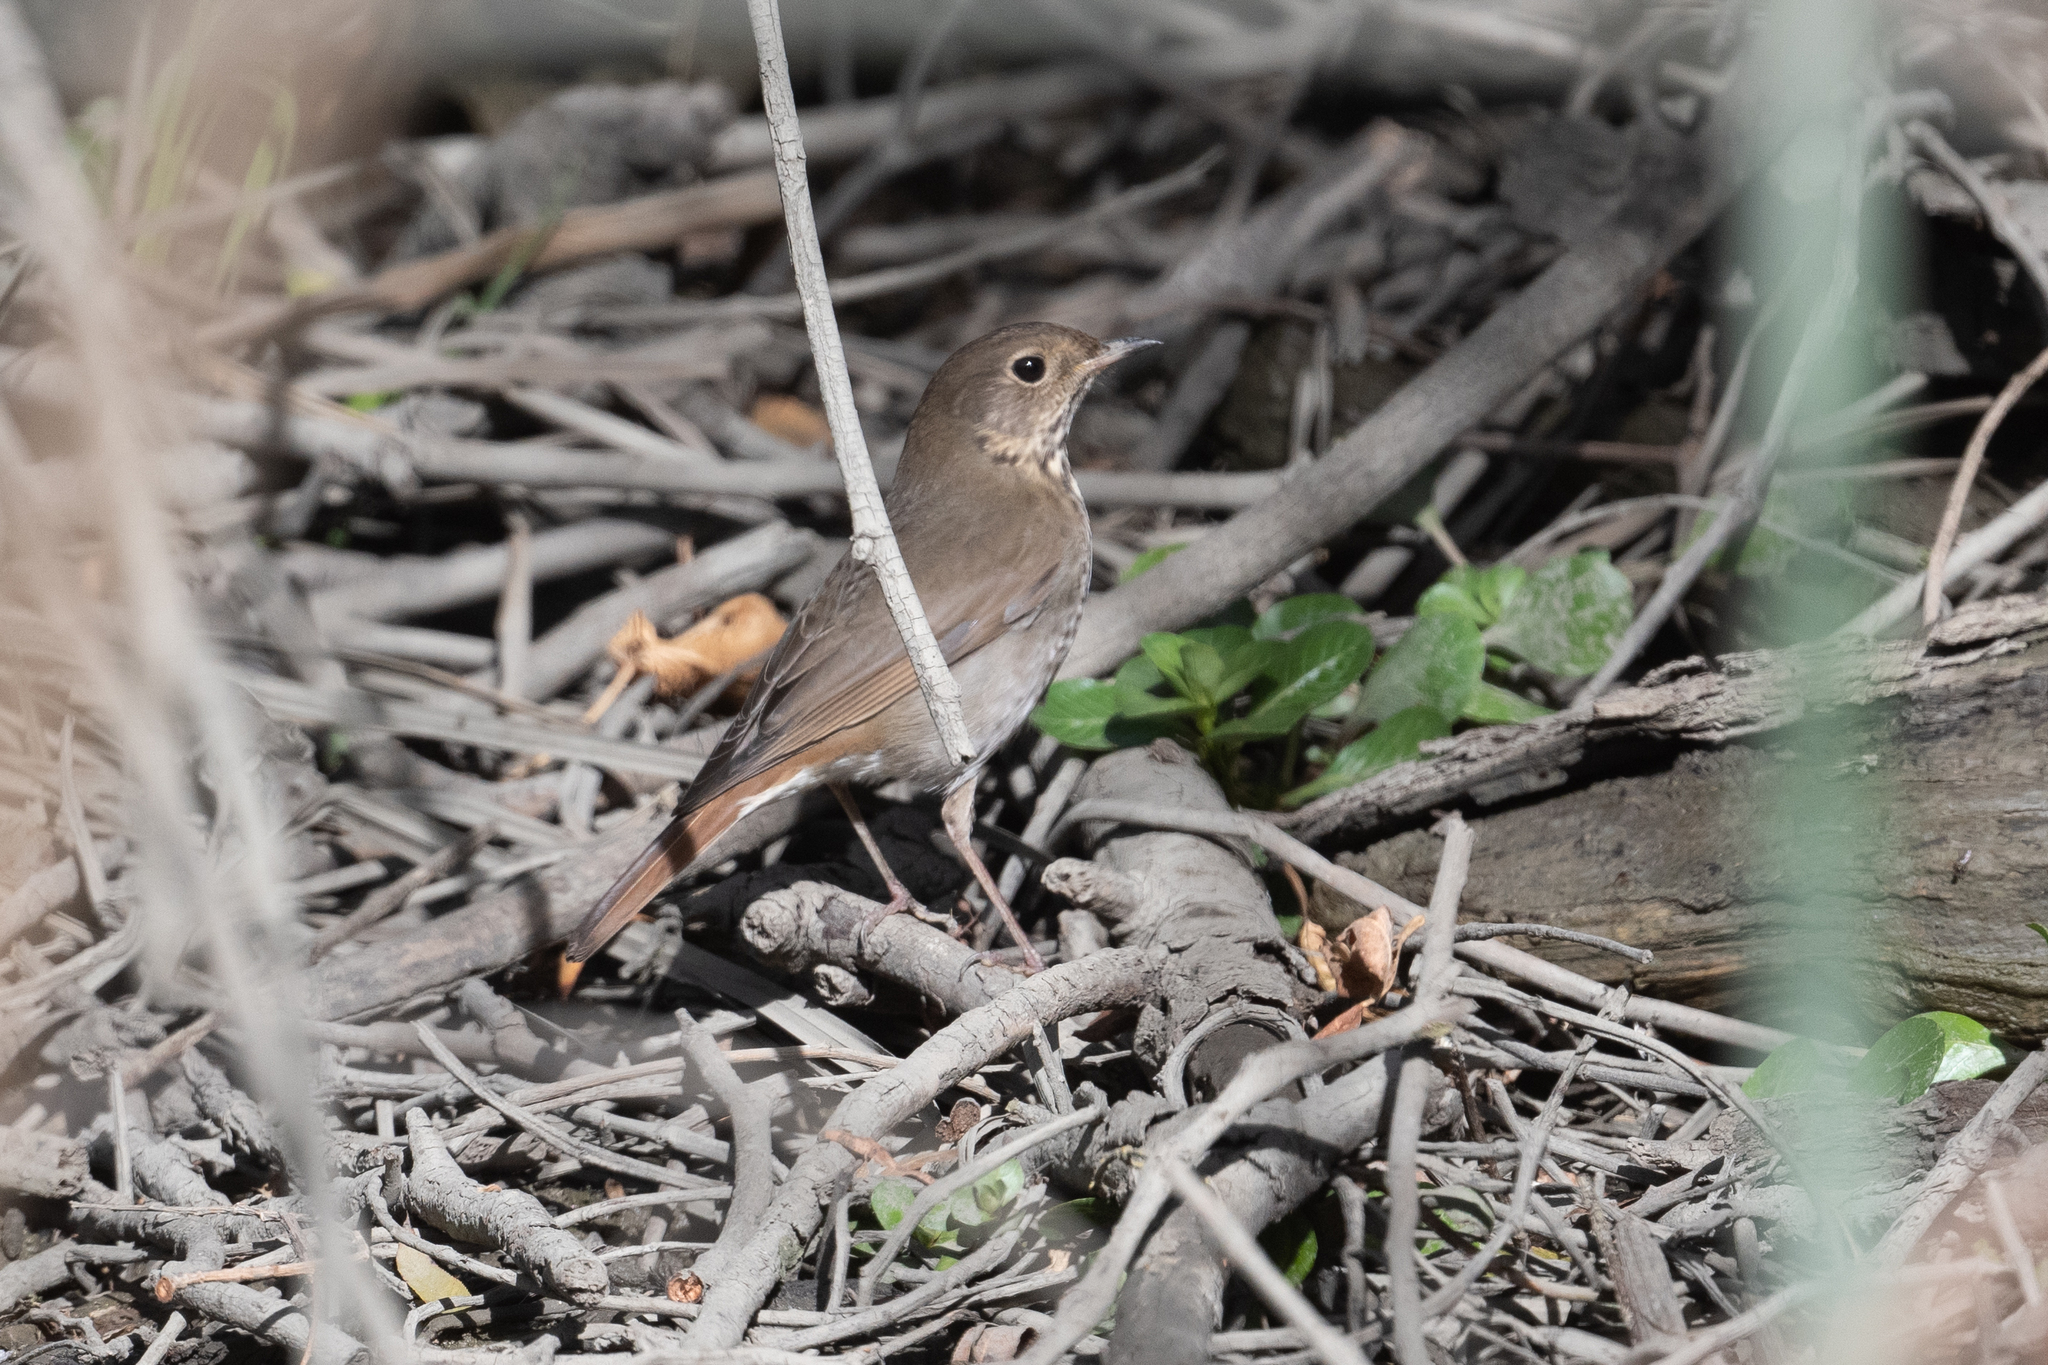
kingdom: Animalia
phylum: Chordata
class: Aves
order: Passeriformes
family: Turdidae
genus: Catharus
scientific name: Catharus guttatus
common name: Hermit thrush
